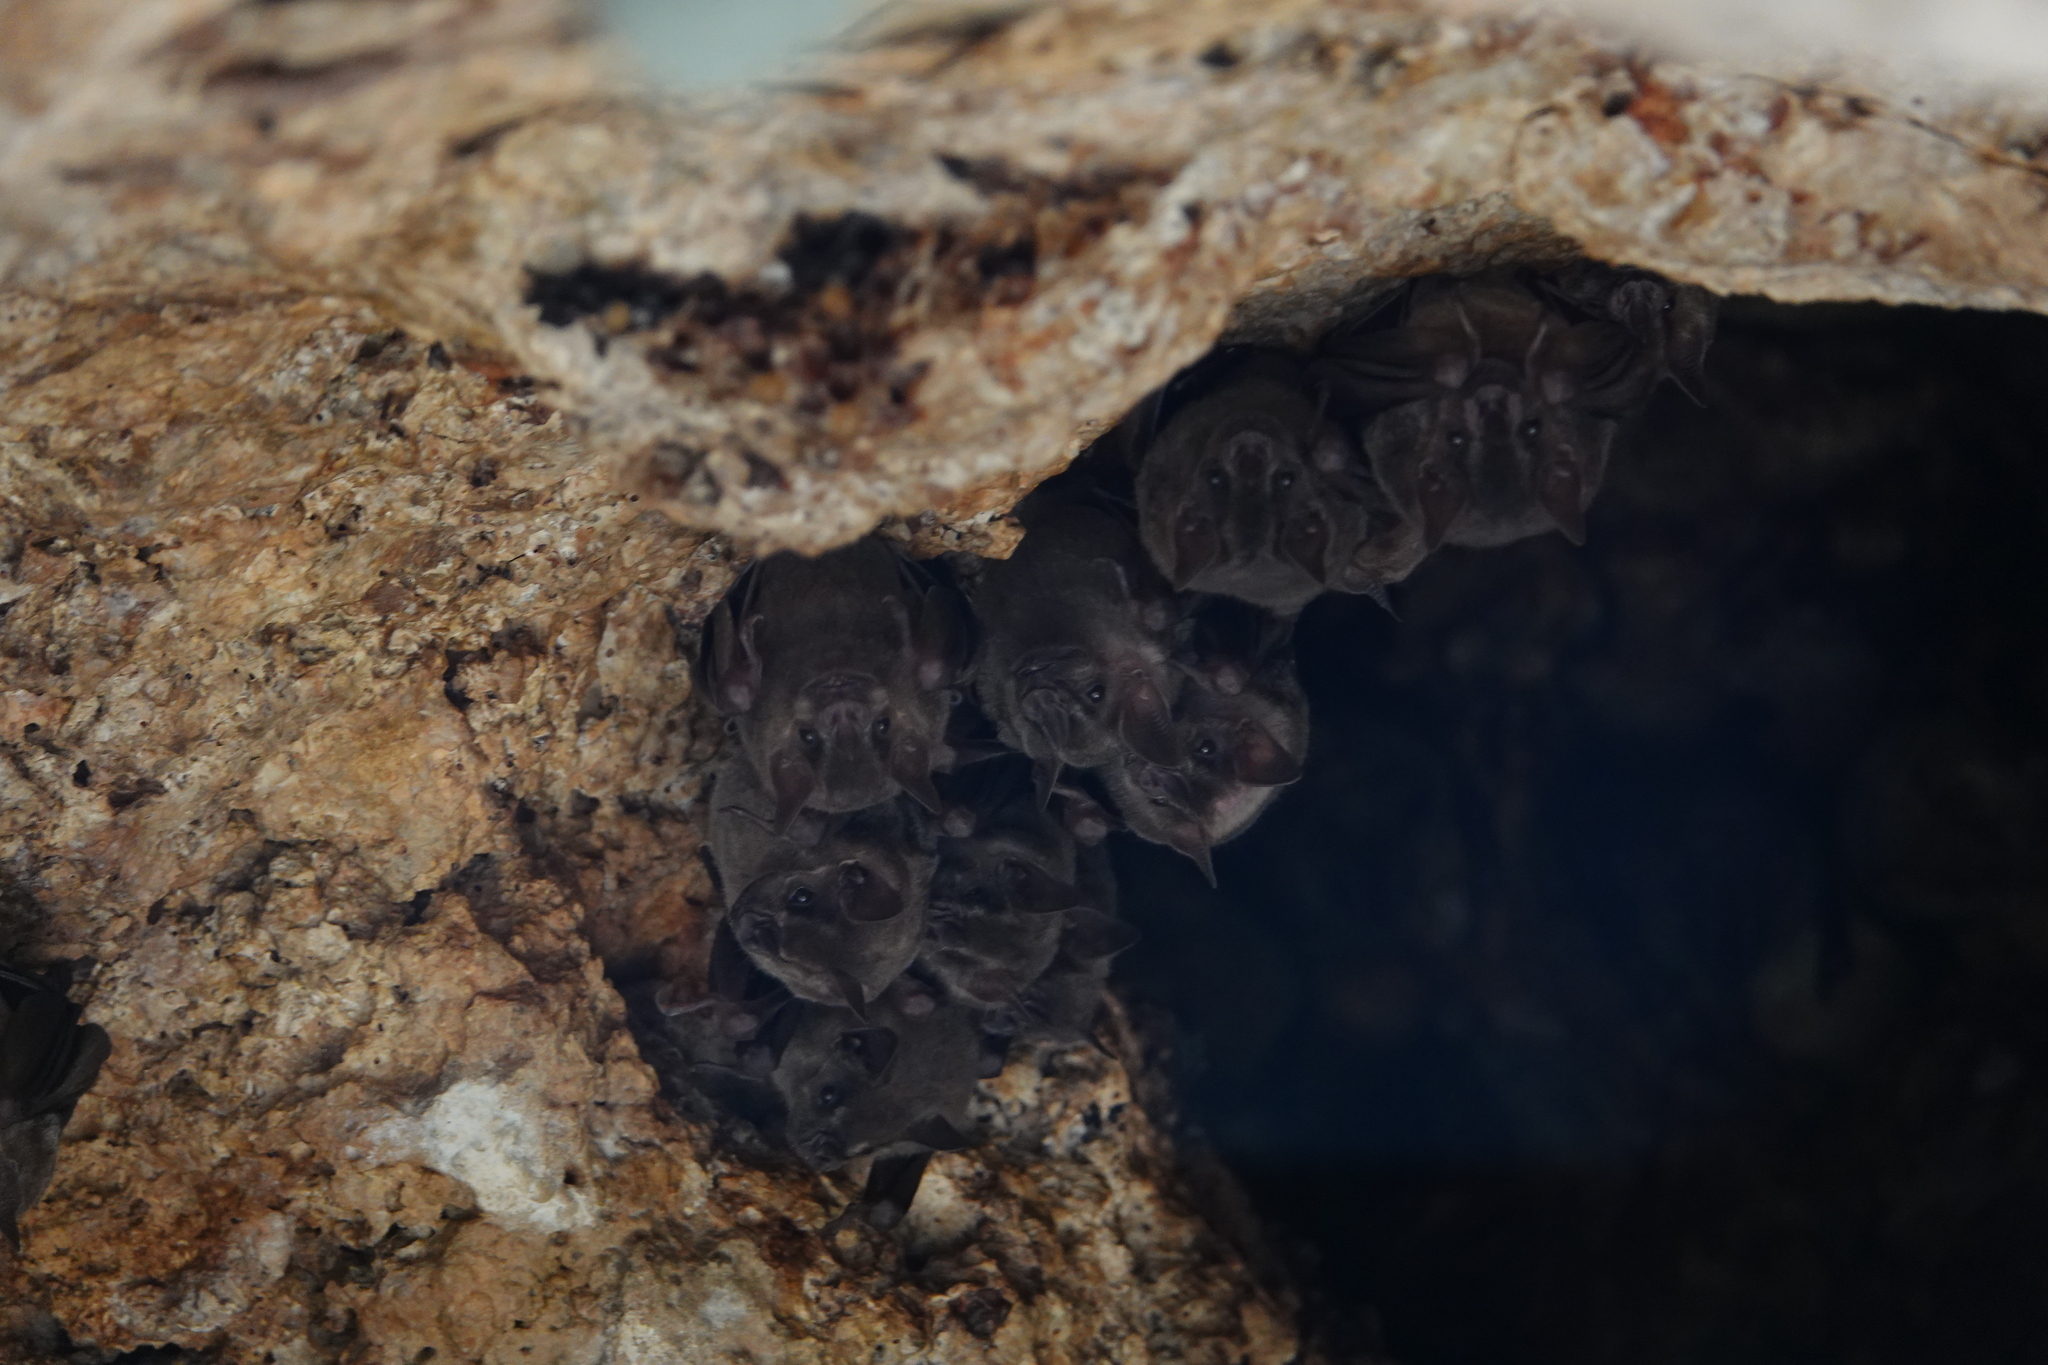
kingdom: Animalia
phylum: Chordata
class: Mammalia
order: Chiroptera
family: Phyllostomidae
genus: Artibeus
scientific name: Artibeus jamaicensis
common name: Jamaican fruit-eating bat
